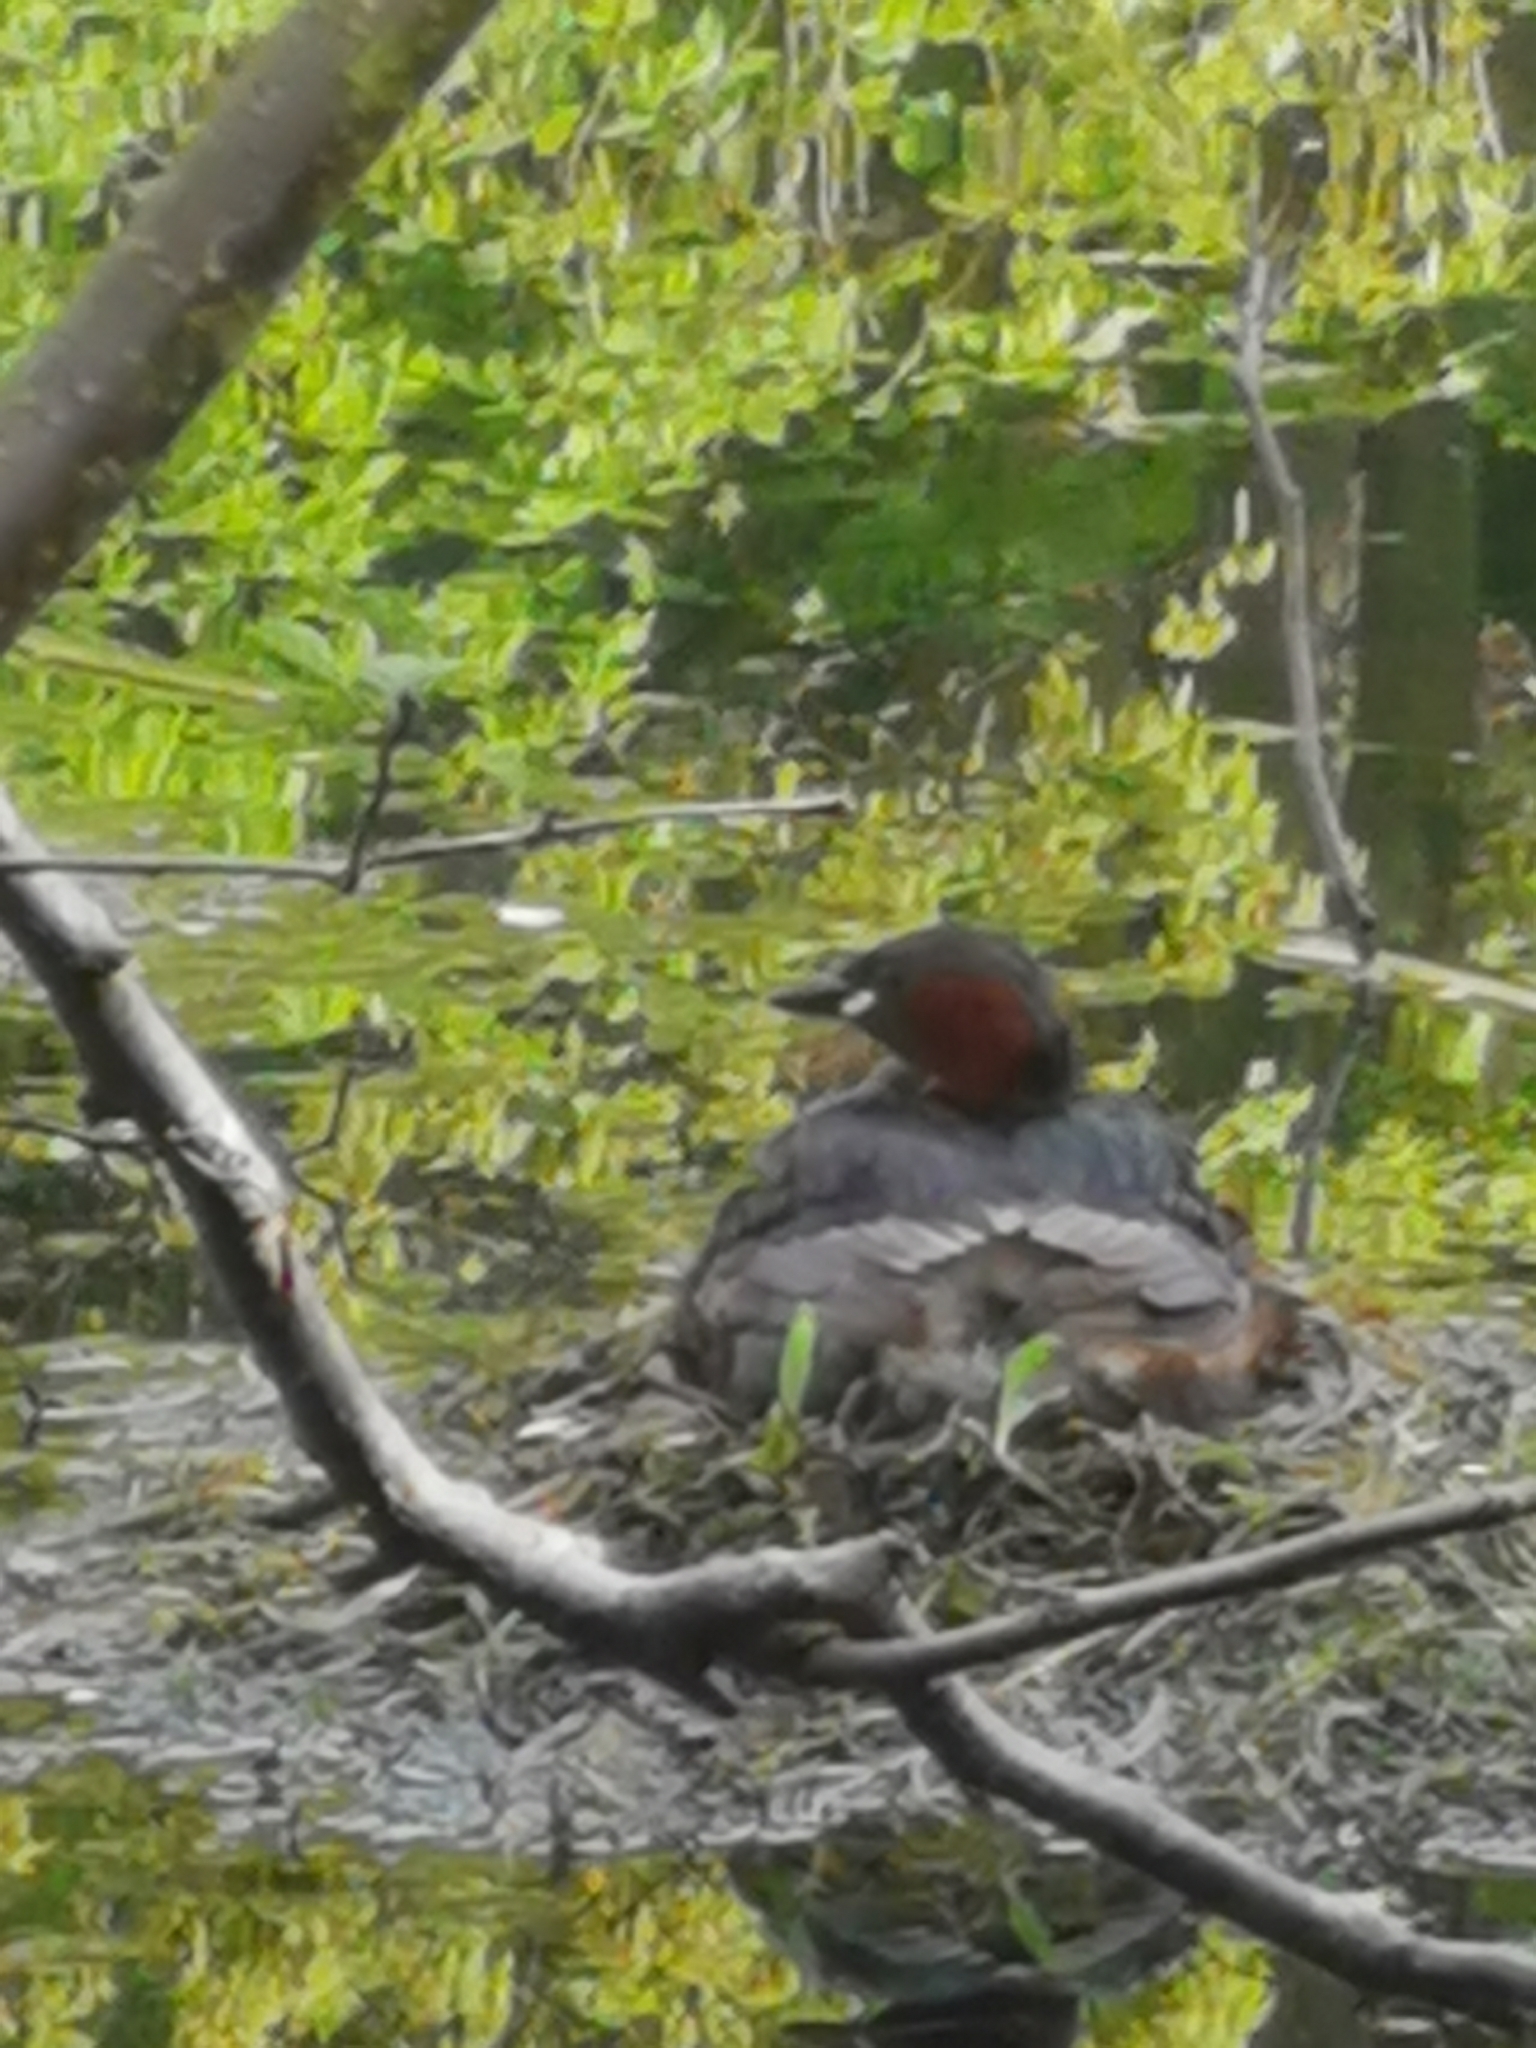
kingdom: Animalia
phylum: Chordata
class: Aves
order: Podicipediformes
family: Podicipedidae
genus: Tachybaptus
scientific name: Tachybaptus ruficollis
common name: Little grebe
